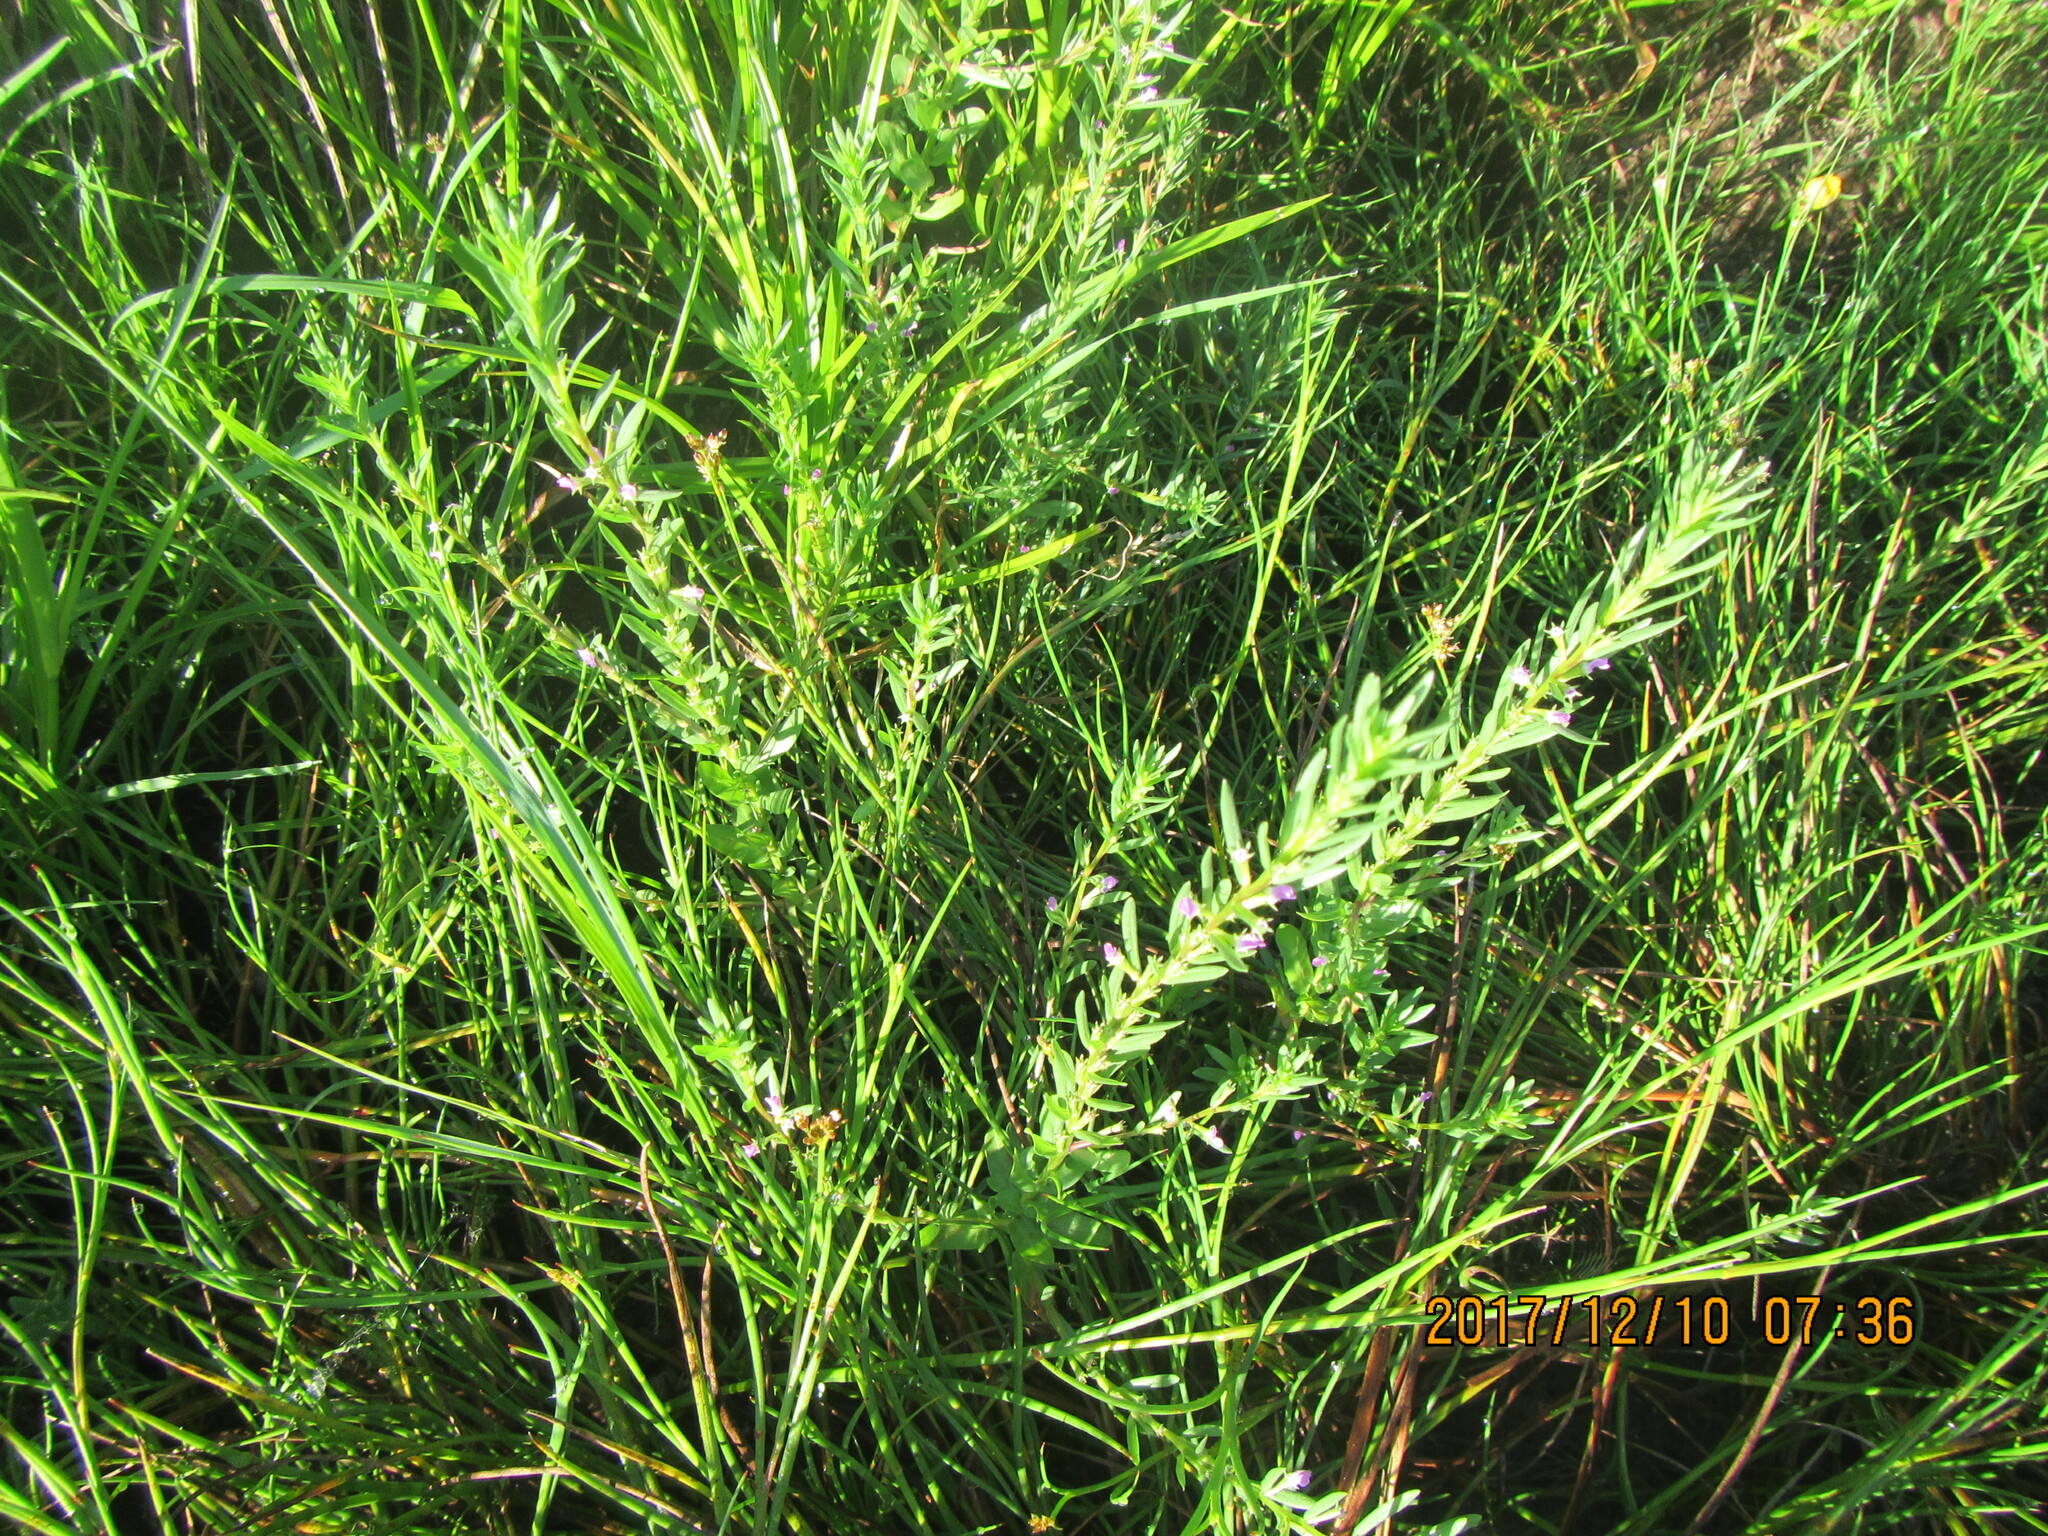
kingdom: Plantae
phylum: Tracheophyta
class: Magnoliopsida
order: Myrtales
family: Lythraceae
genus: Lythrum
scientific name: Lythrum hyssopifolia
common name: Grass-poly
